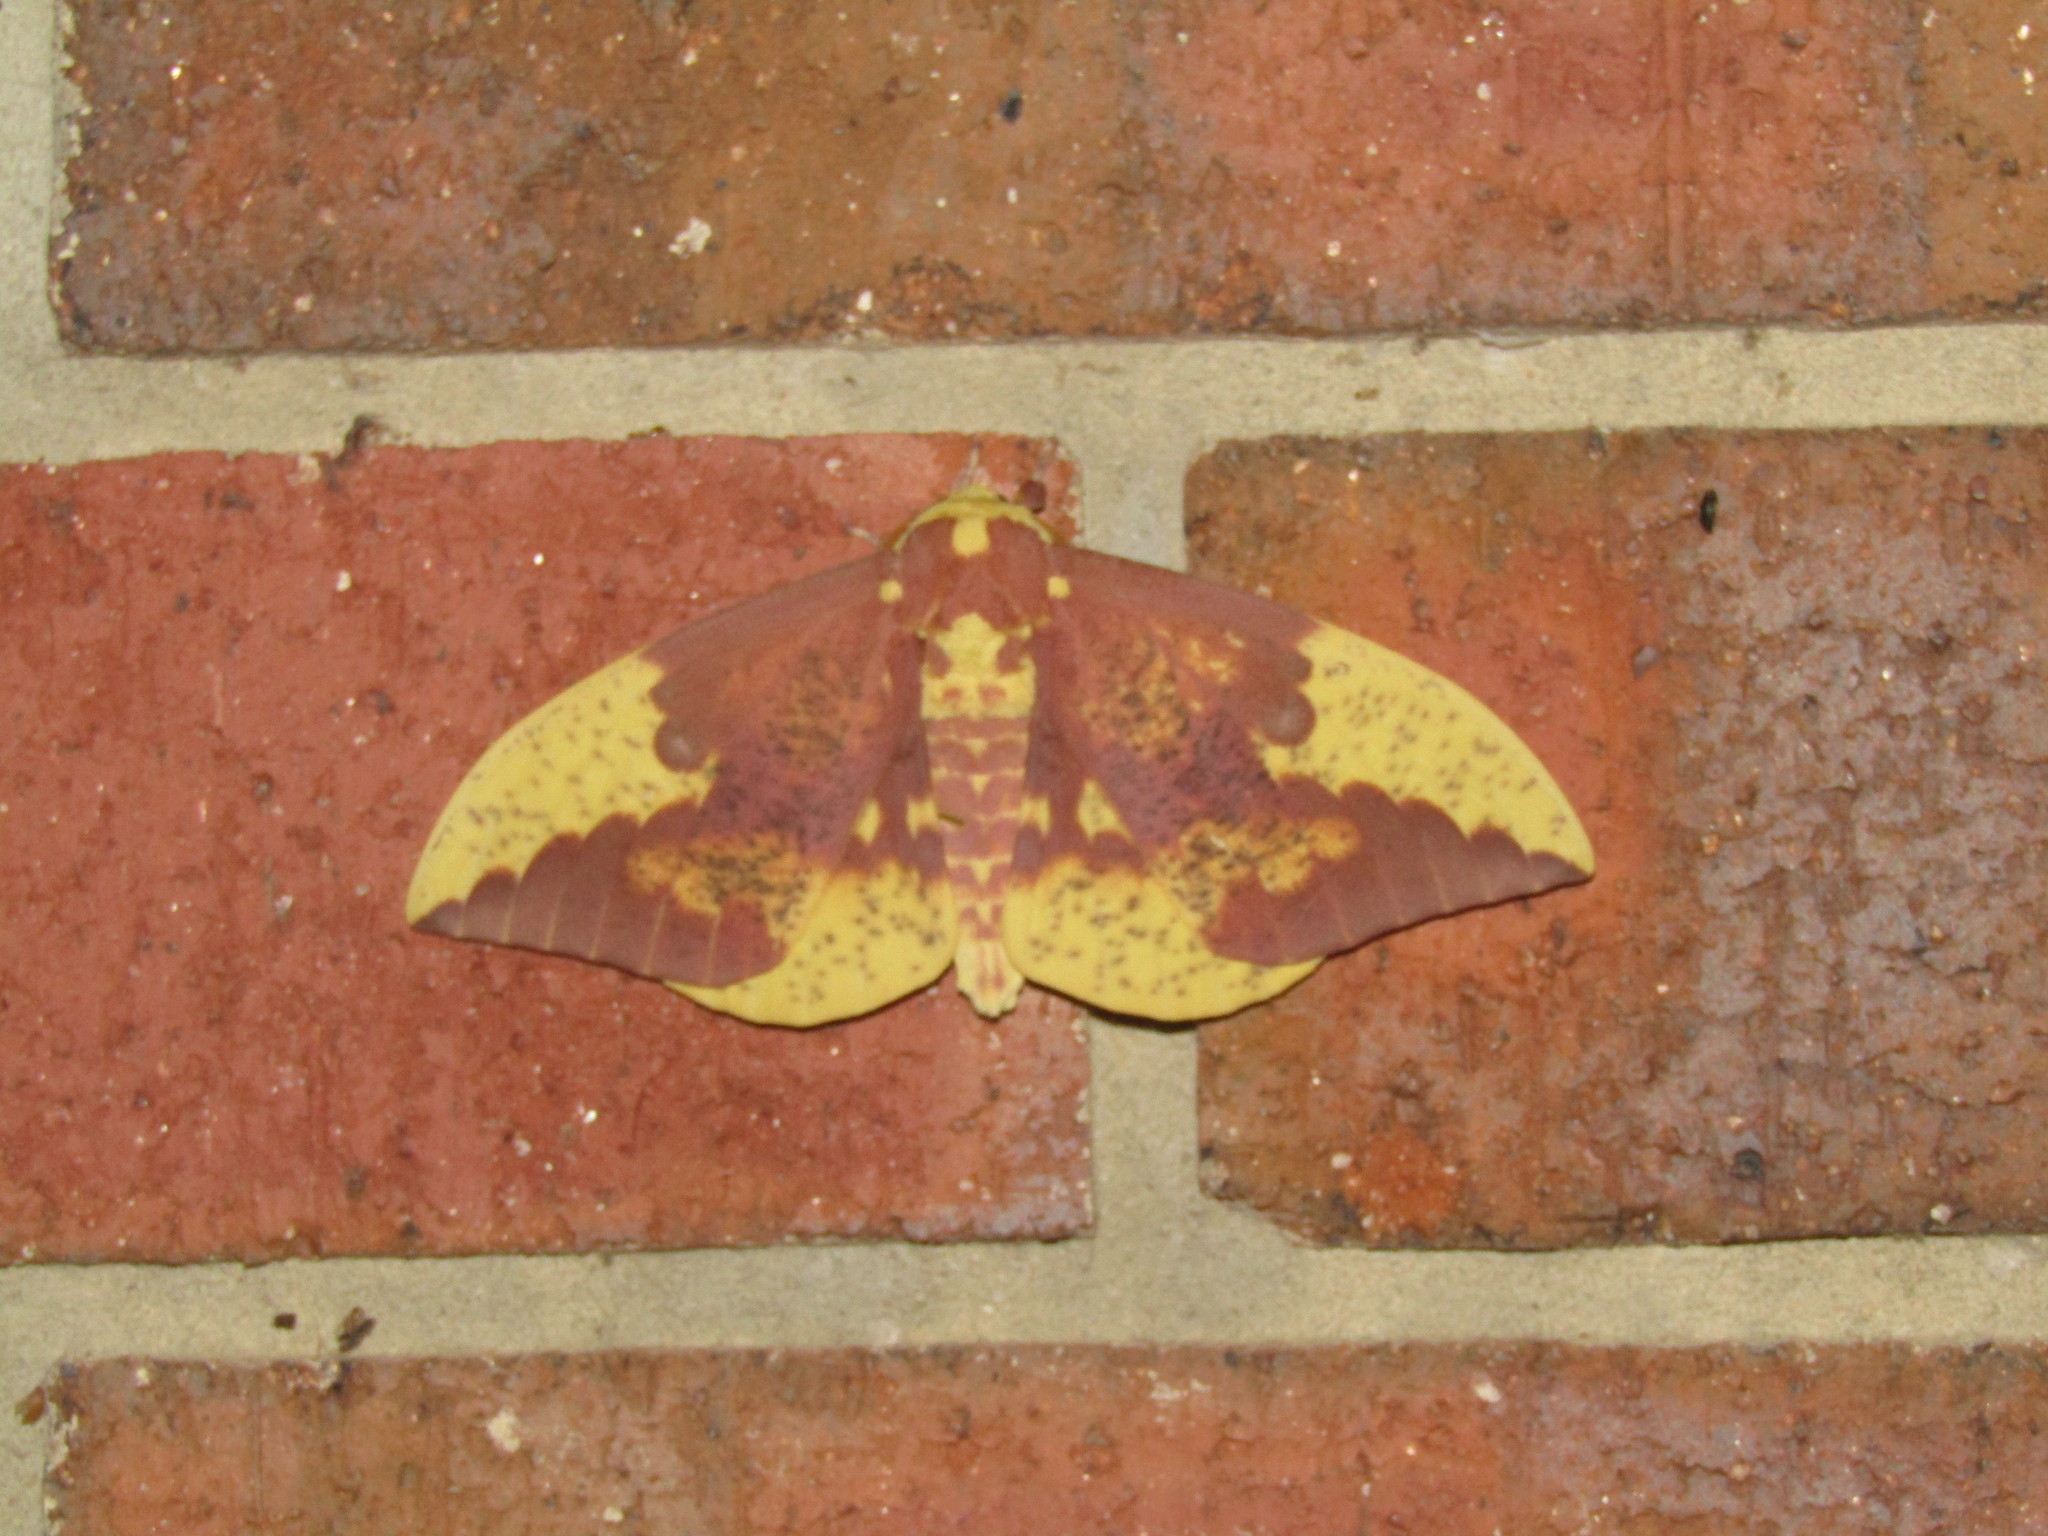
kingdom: Animalia
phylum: Arthropoda
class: Insecta
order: Lepidoptera
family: Saturniidae
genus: Eacles
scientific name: Eacles imperialis
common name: Imperial moth
